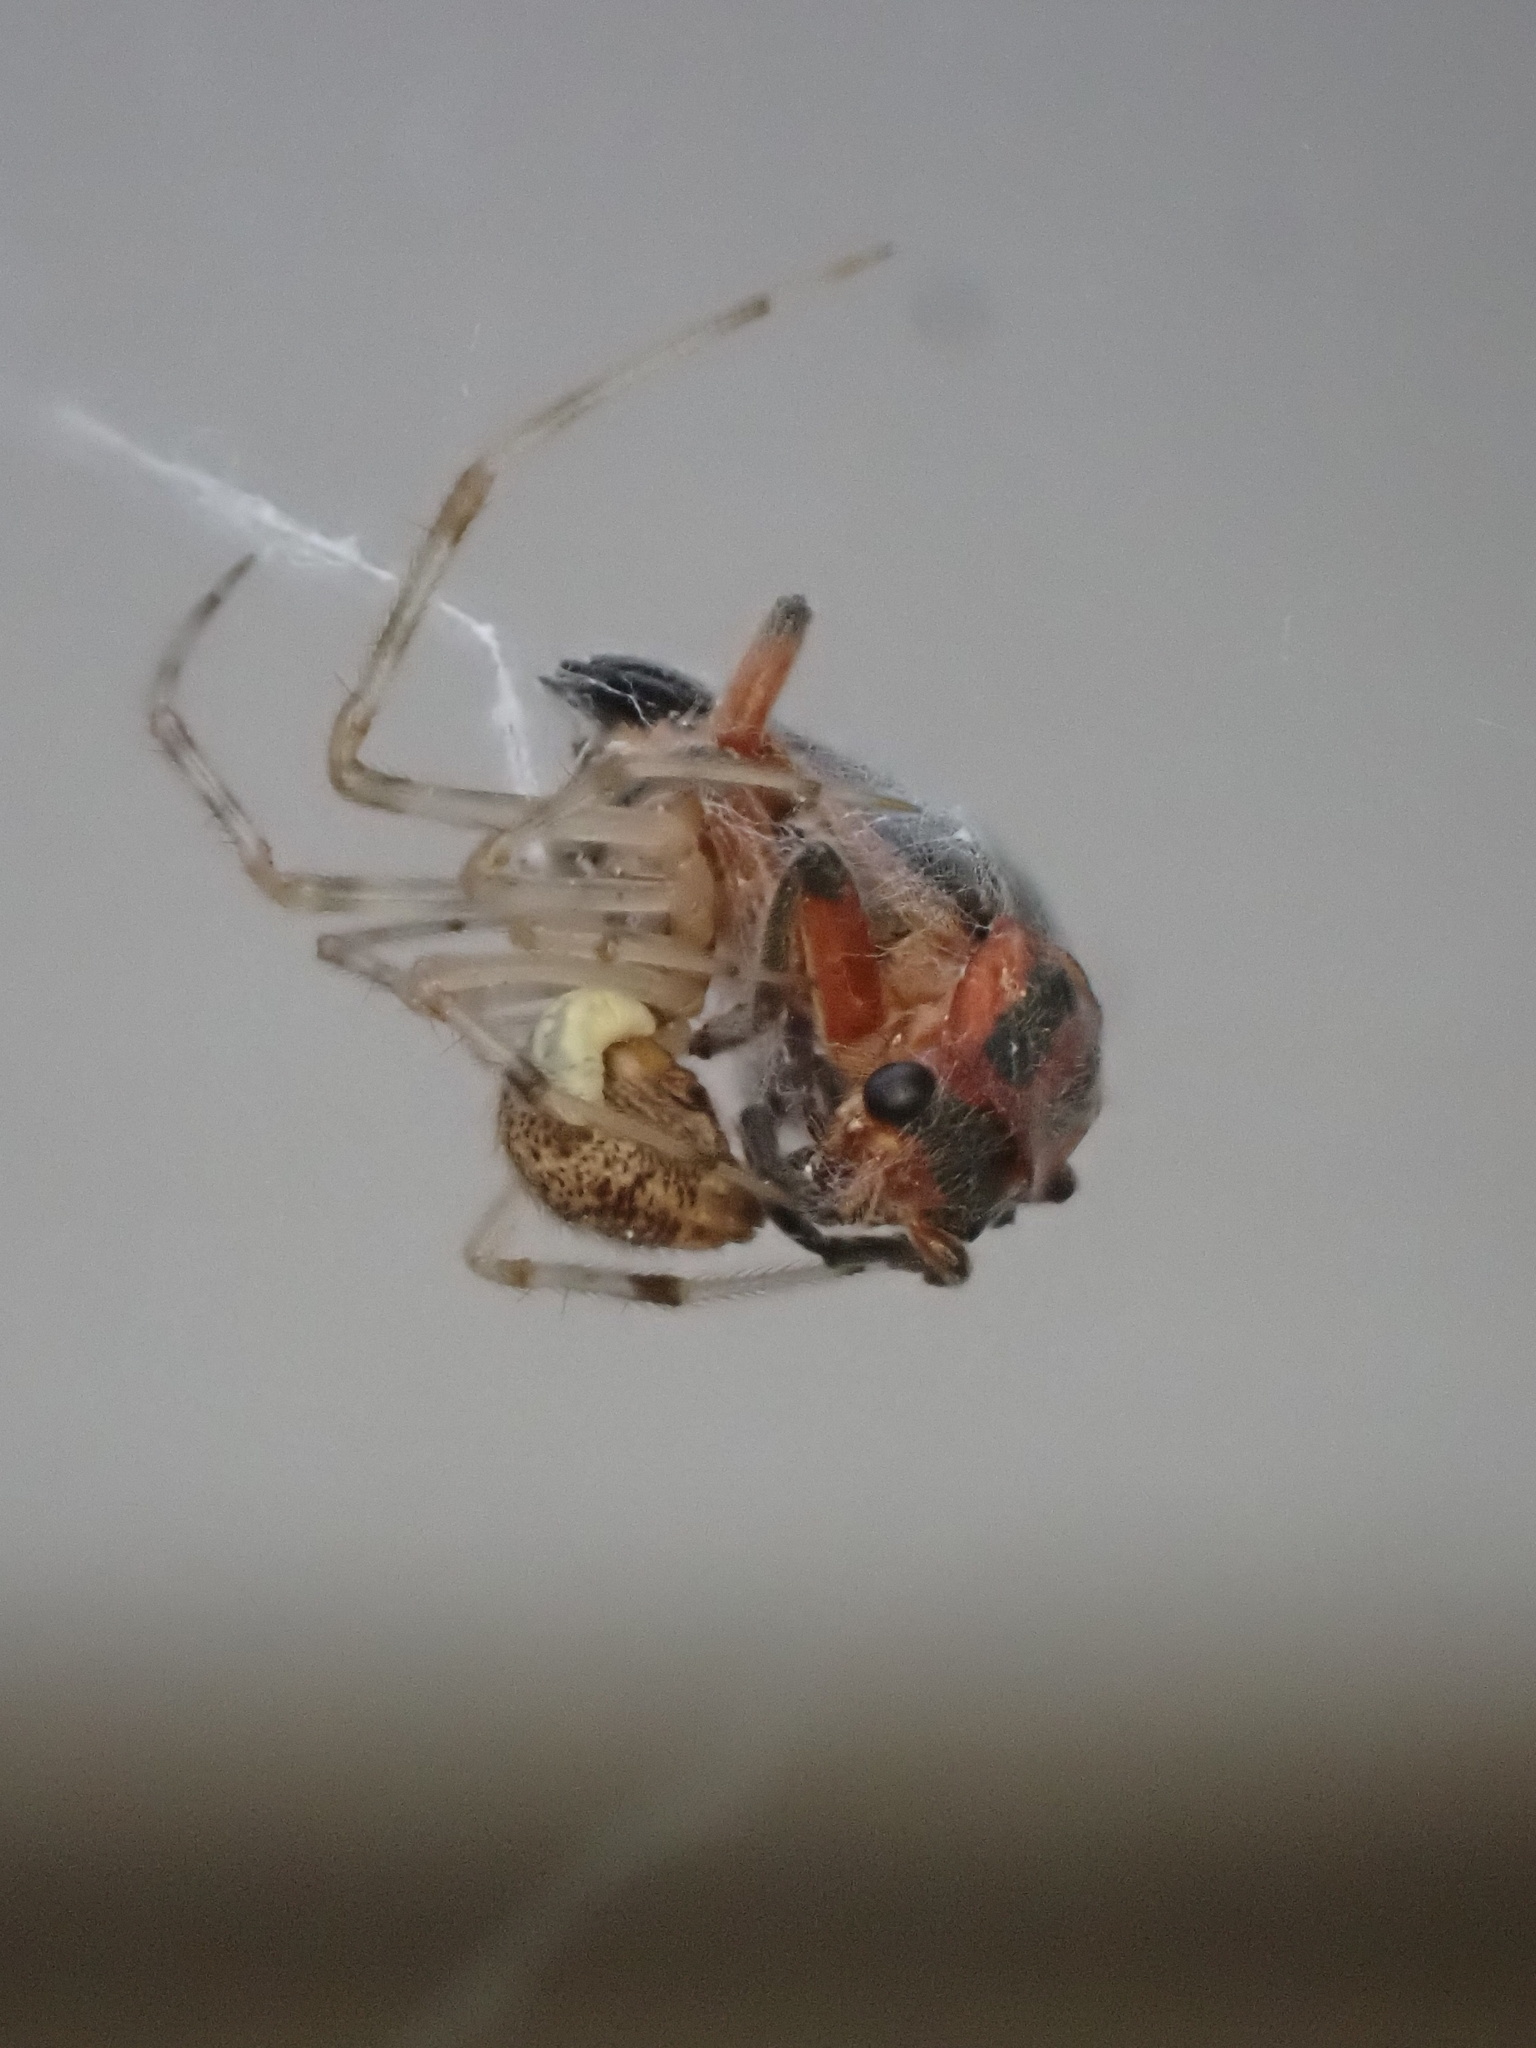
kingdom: Animalia
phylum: Arthropoda
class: Insecta
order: Coleoptera
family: Cantharidae
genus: Atalantycha
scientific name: Atalantycha bilineata
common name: Two-lined leatherwing
